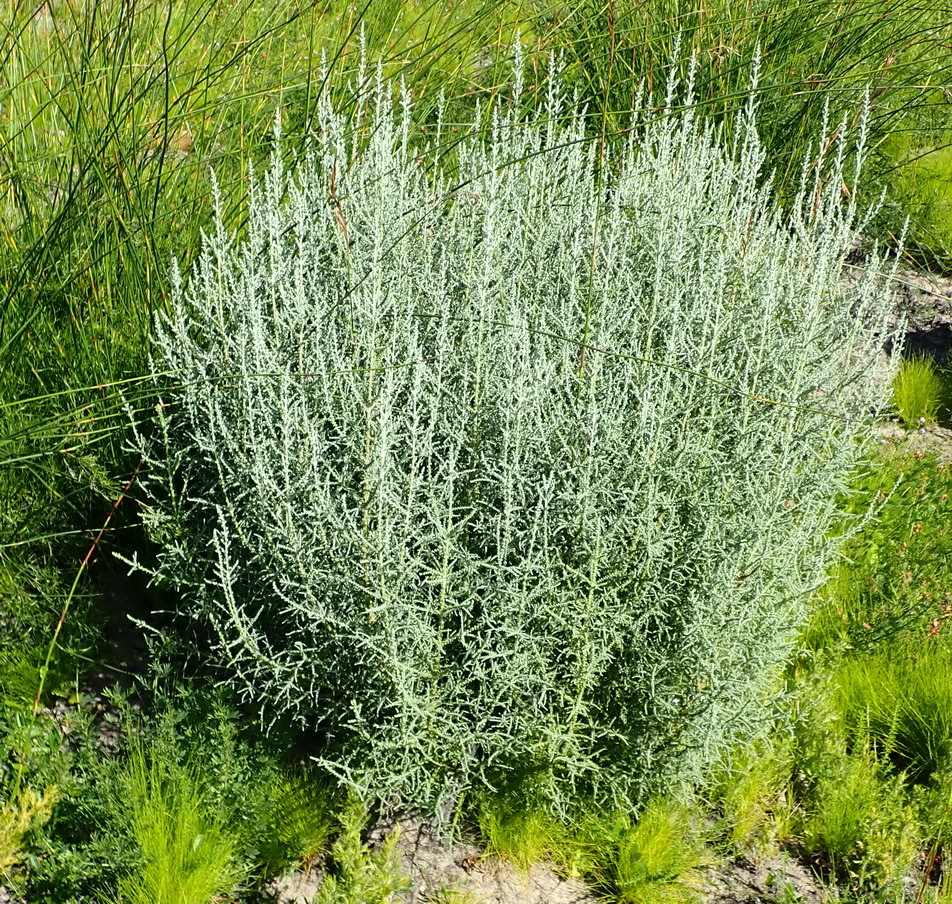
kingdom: Plantae
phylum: Tracheophyta
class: Magnoliopsida
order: Asterales
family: Asteraceae
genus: Seriphium
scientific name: Seriphium plumosum
